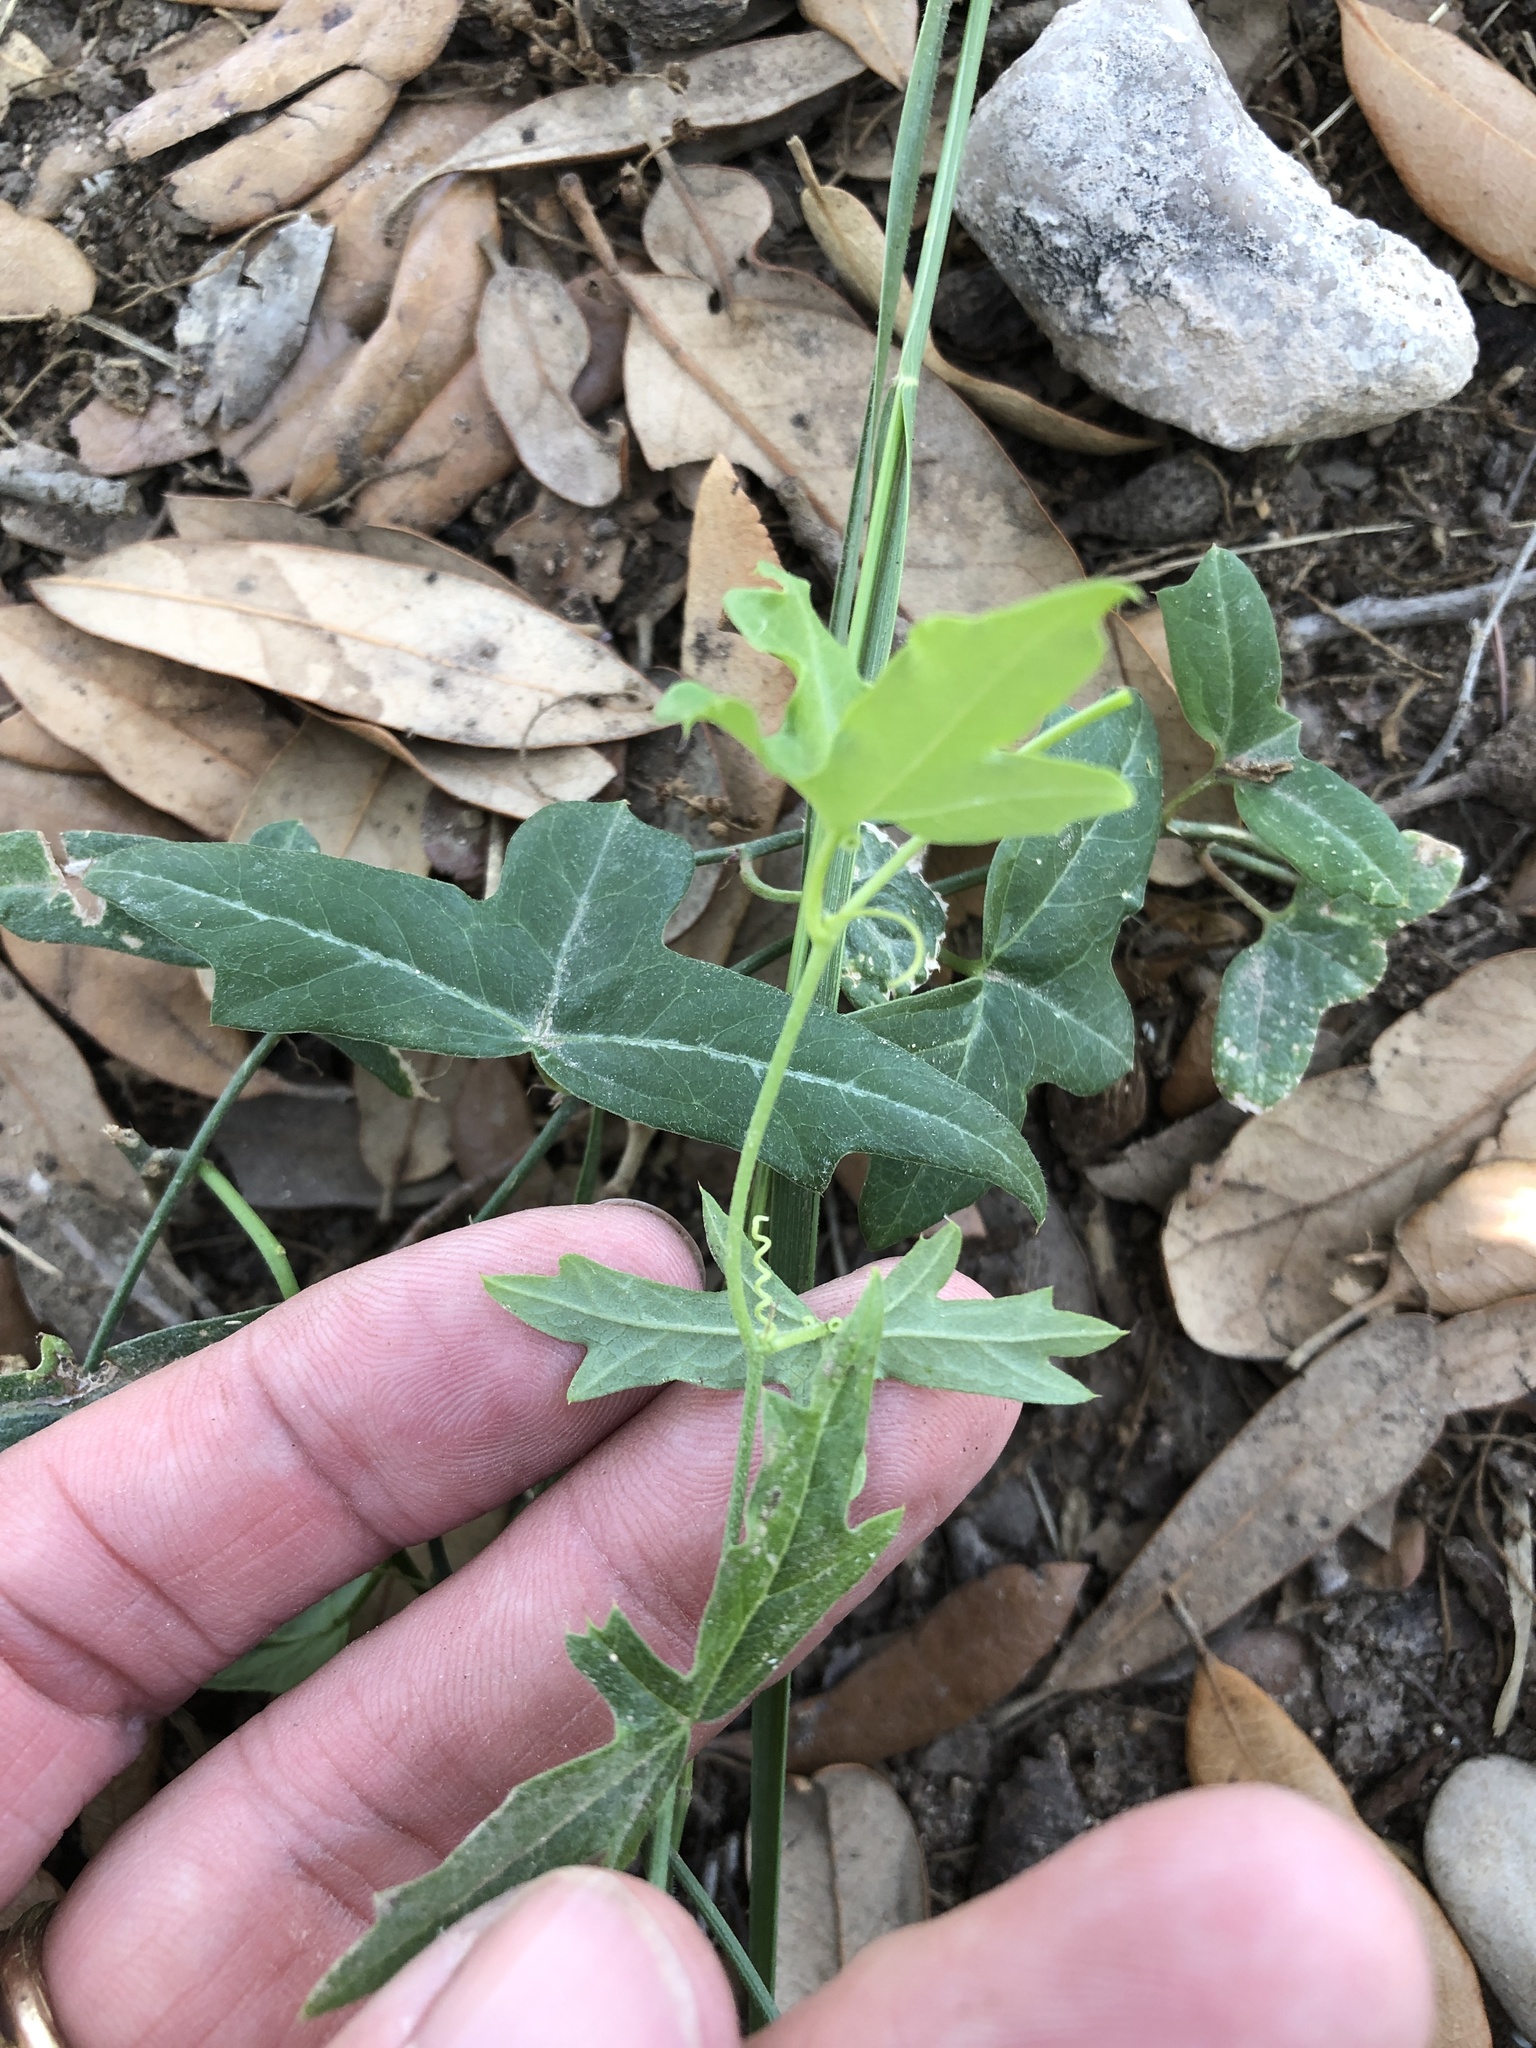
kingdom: Plantae
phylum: Tracheophyta
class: Magnoliopsida
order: Malpighiales
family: Passifloraceae
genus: Passiflora
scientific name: Passiflora tenuiloba
